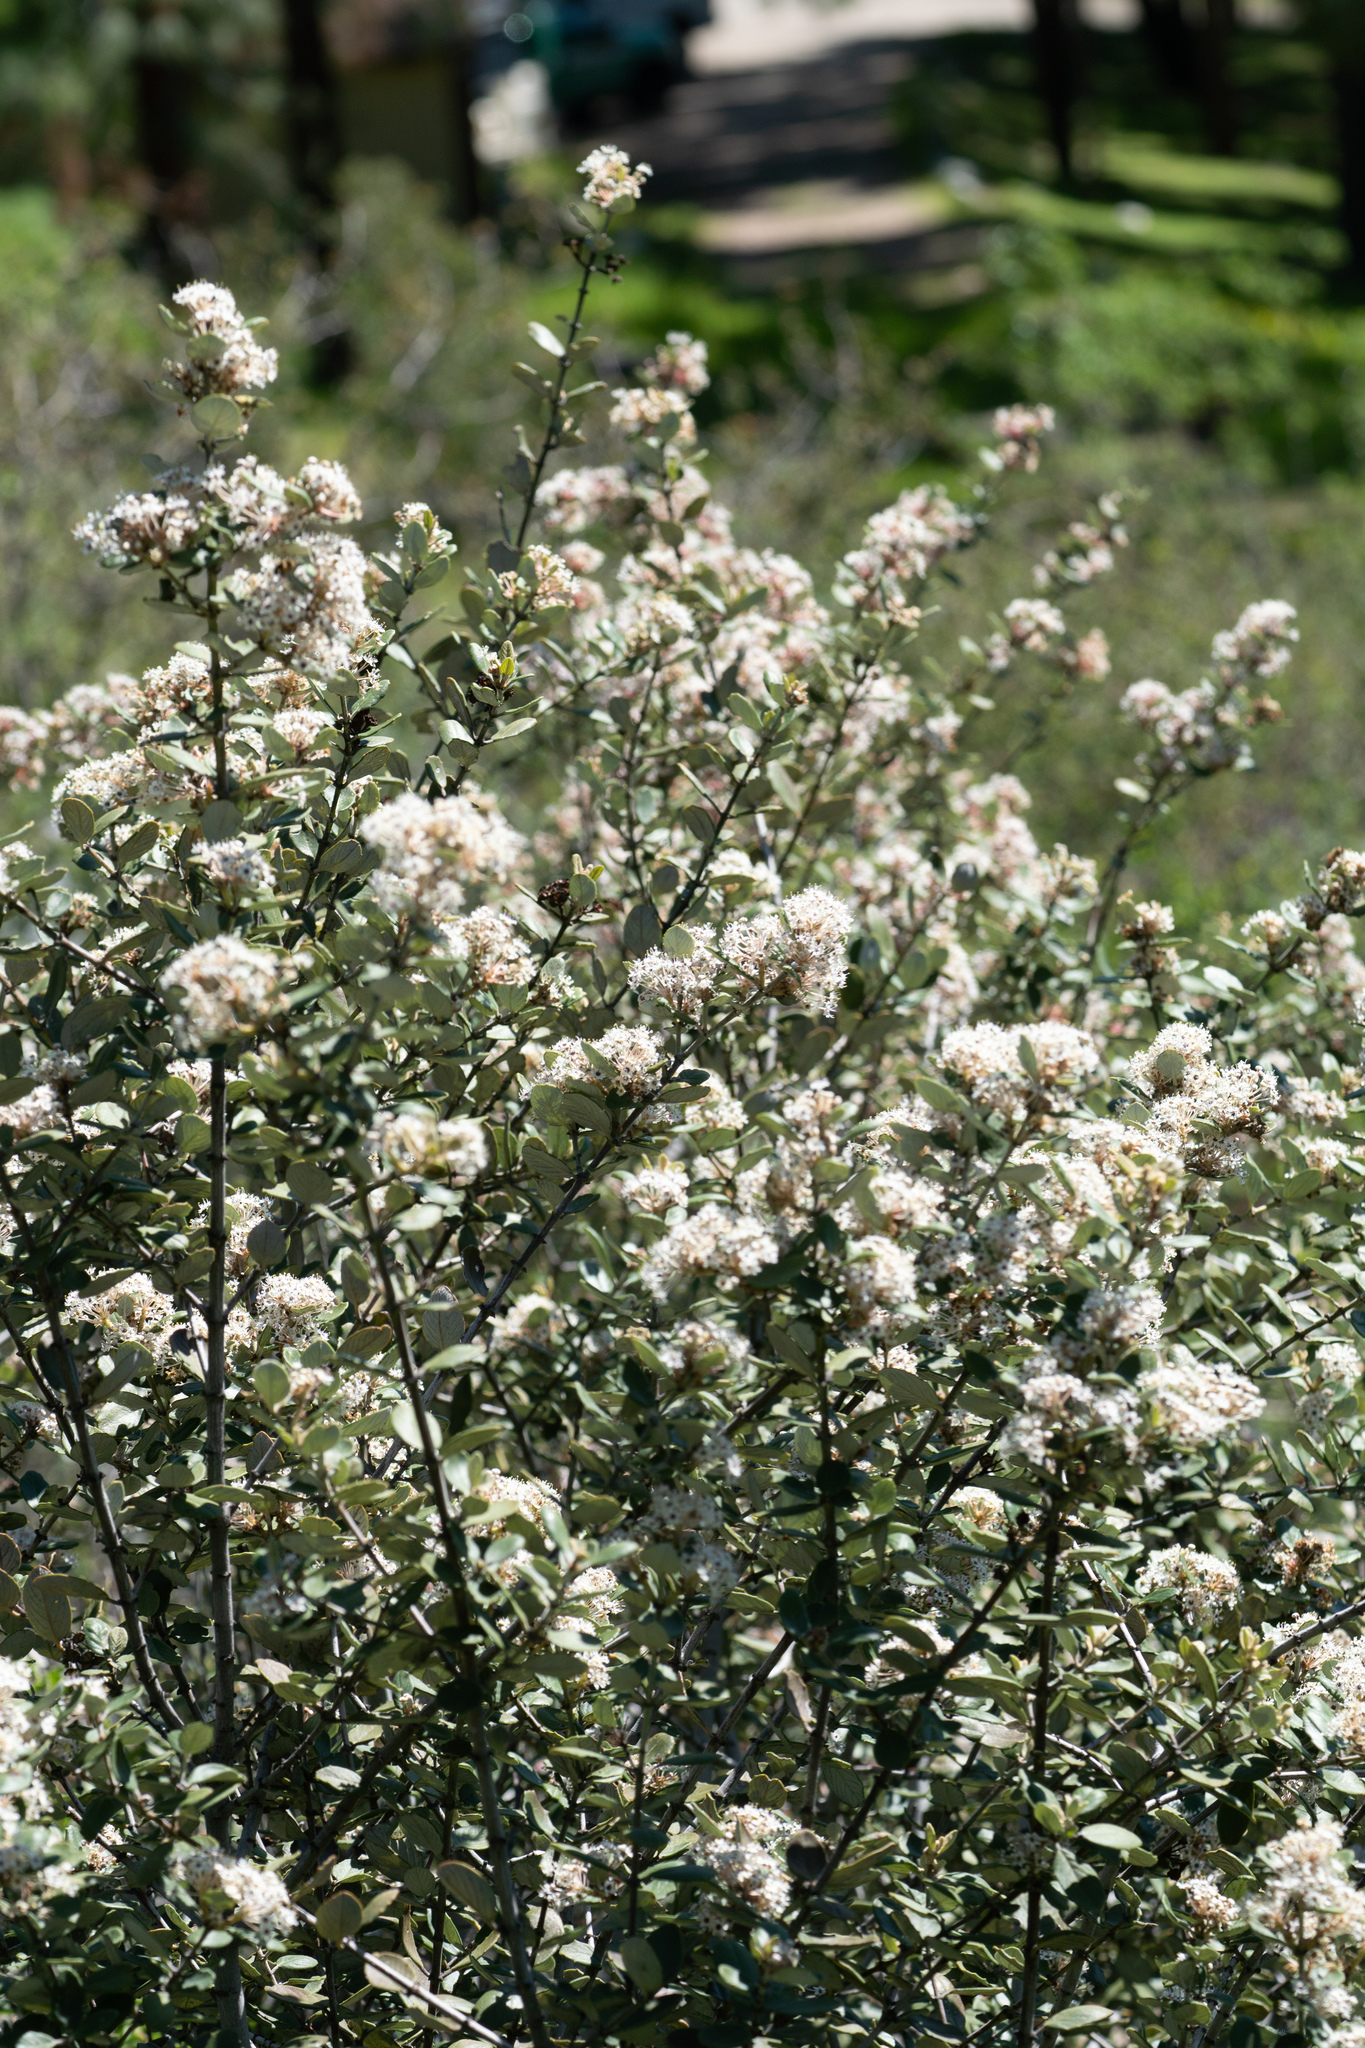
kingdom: Plantae
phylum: Tracheophyta
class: Magnoliopsida
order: Rosales
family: Rhamnaceae
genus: Ceanothus
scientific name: Ceanothus crassifolius
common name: Hoaryleaf ceanothus
